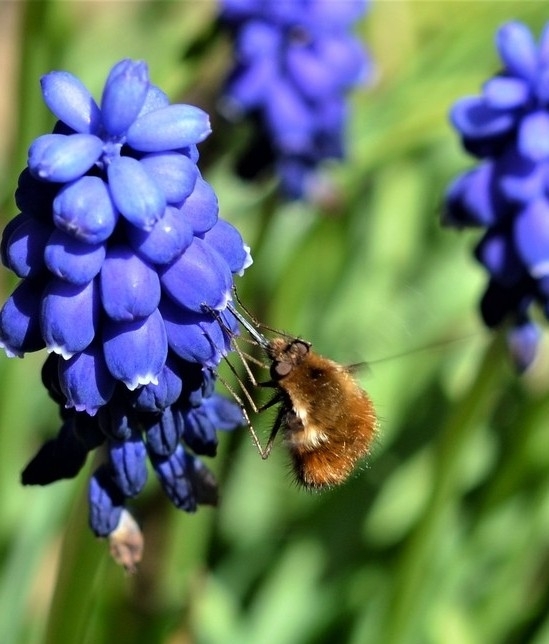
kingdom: Animalia
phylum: Arthropoda
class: Insecta
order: Diptera
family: Bombyliidae
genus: Bombylius
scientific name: Bombylius discolor
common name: Dotted bee-fly
